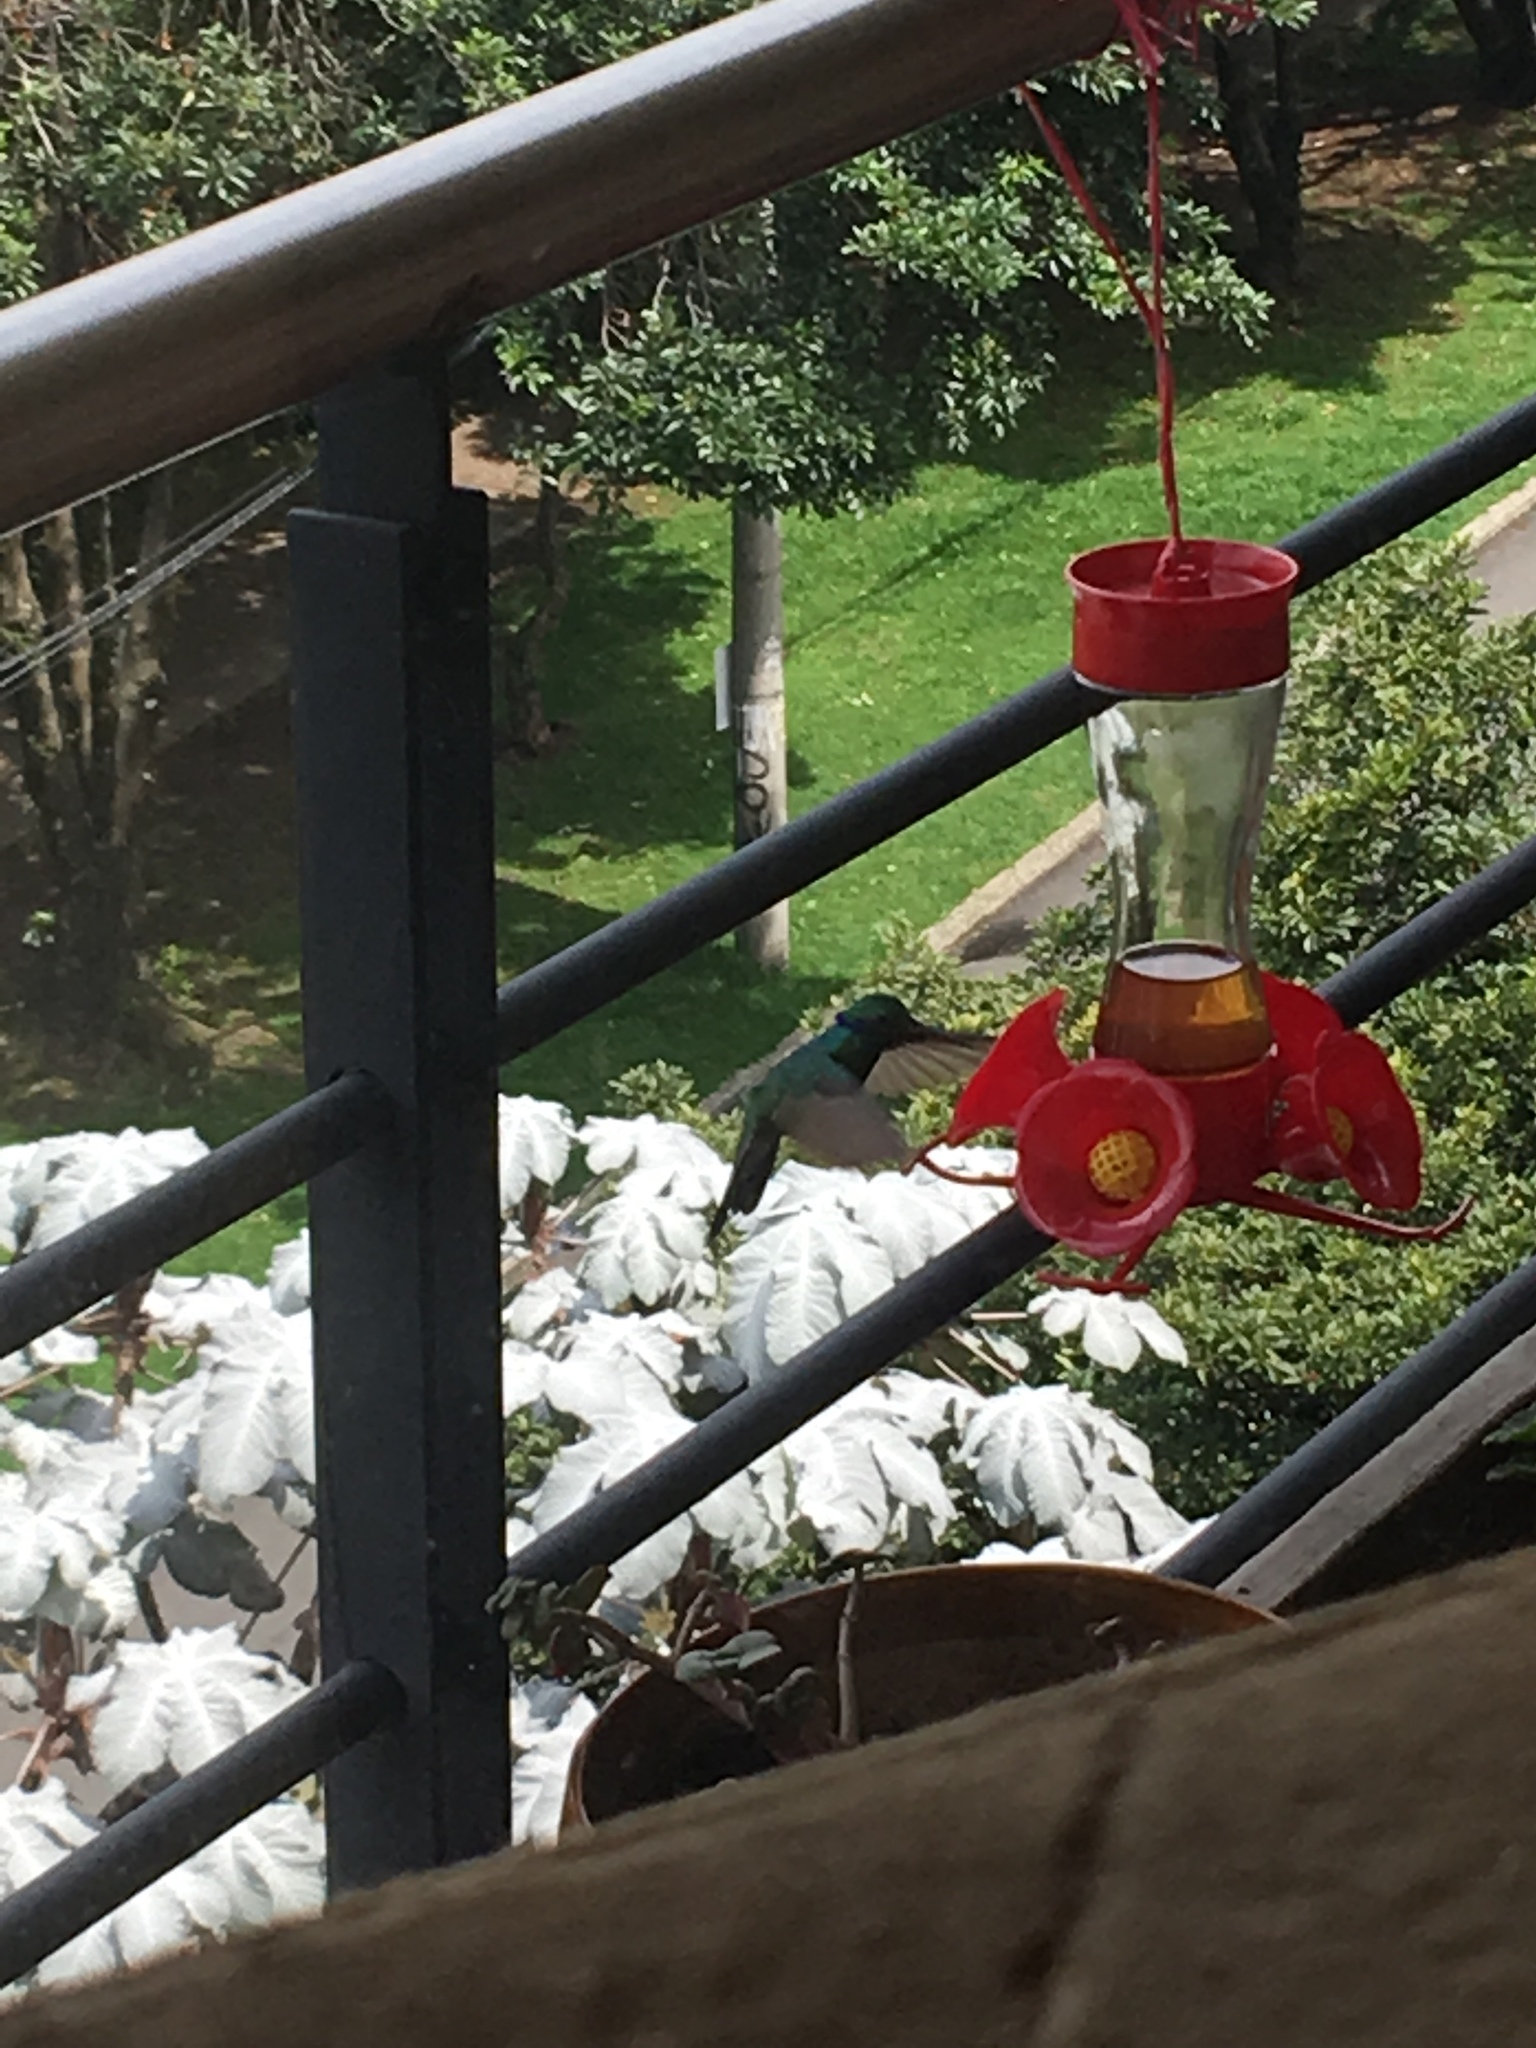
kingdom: Animalia
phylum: Chordata
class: Aves
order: Apodiformes
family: Trochilidae
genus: Colibri
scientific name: Colibri coruscans
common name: Sparkling violetear
